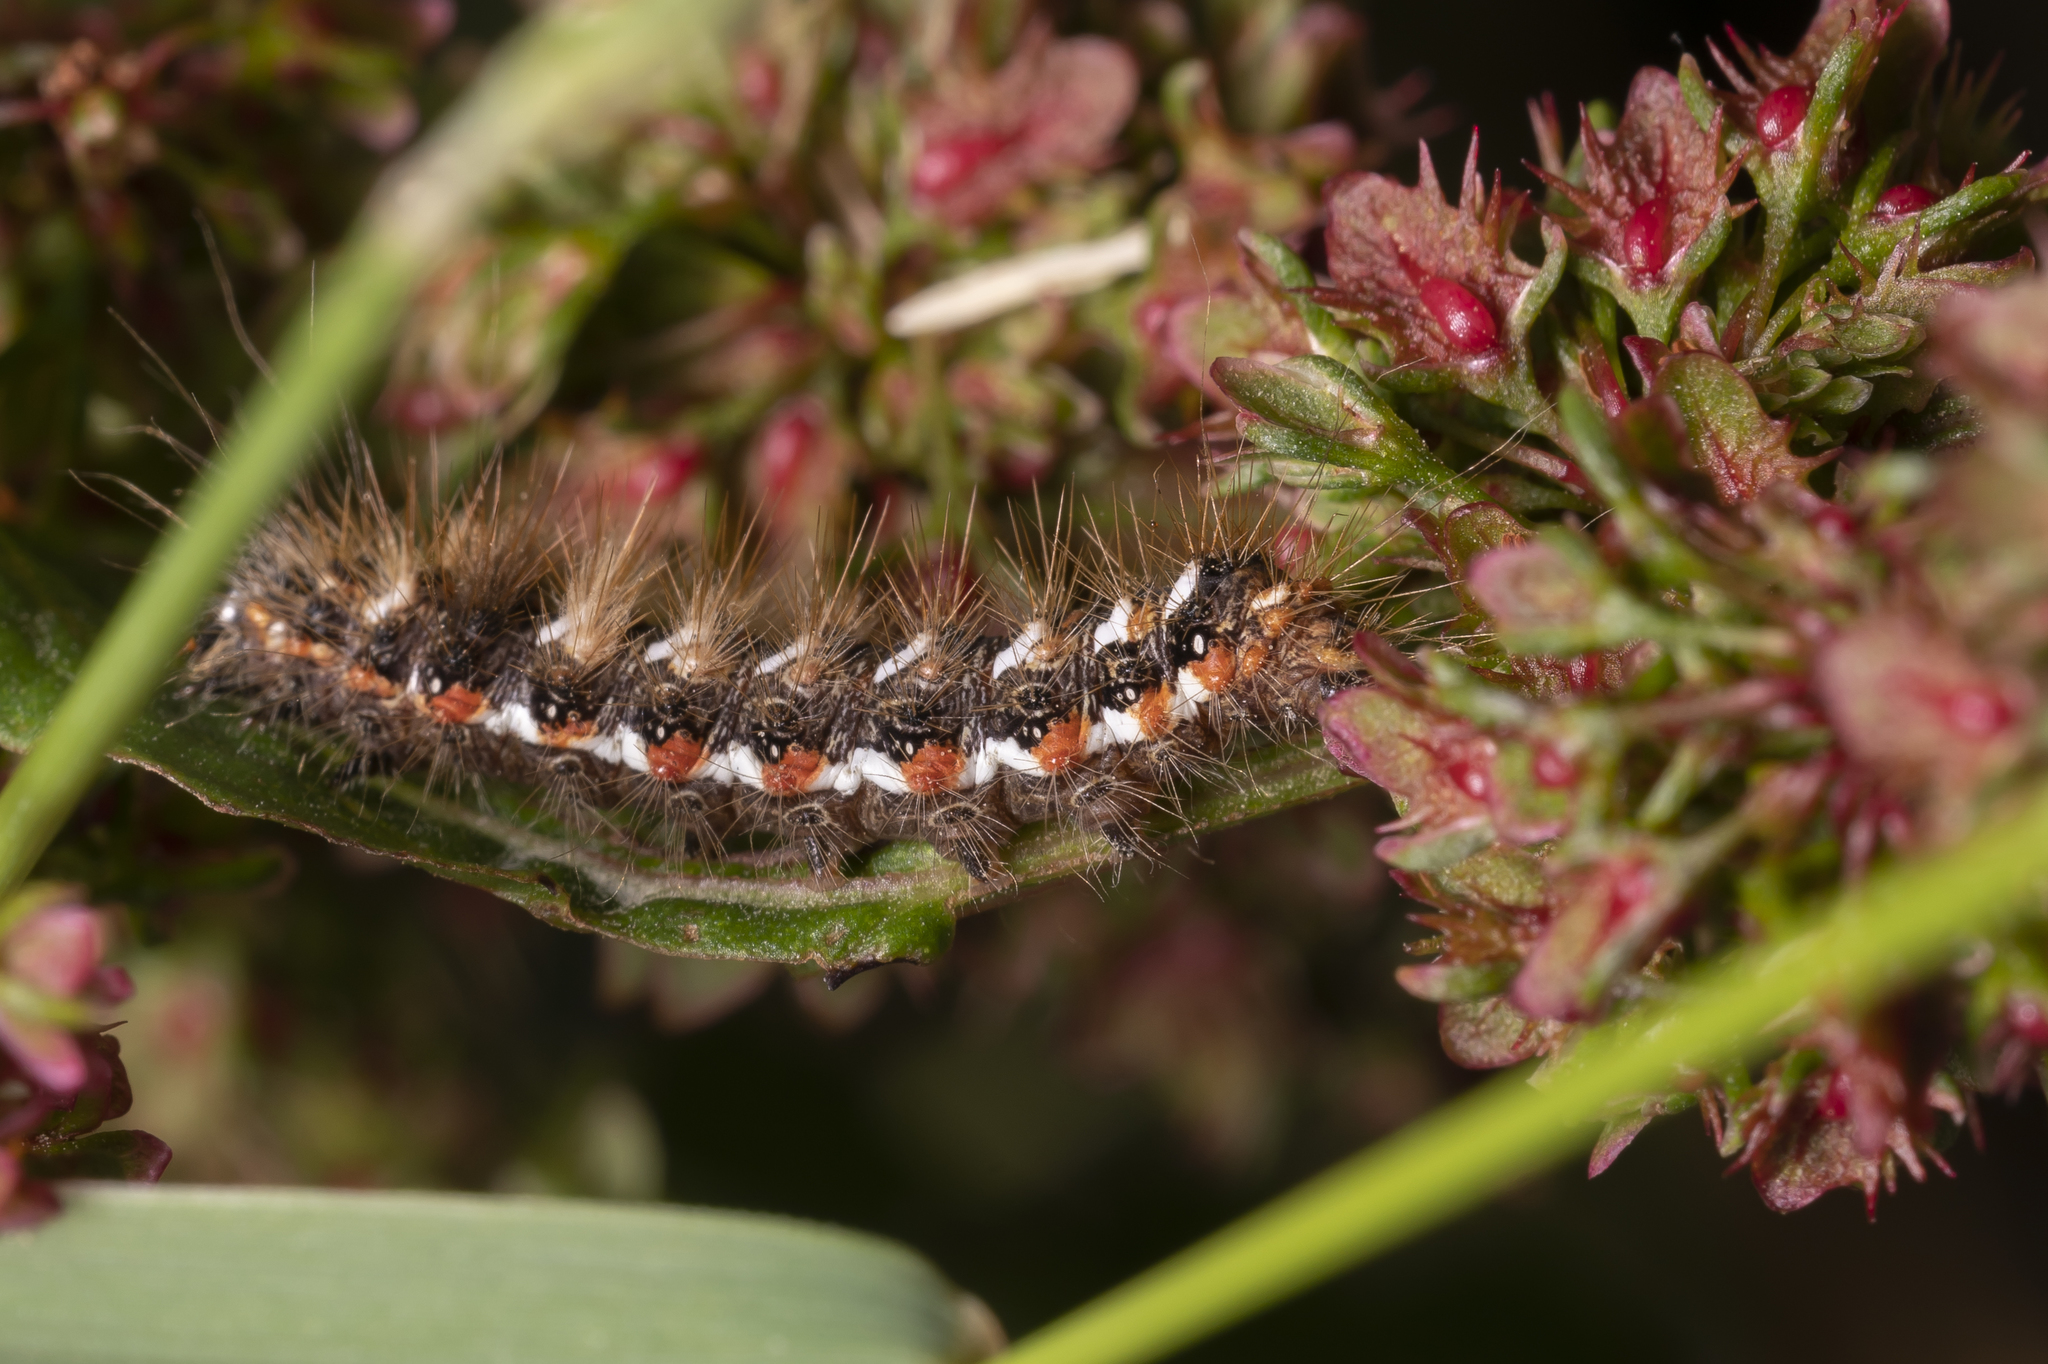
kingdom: Animalia
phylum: Arthropoda
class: Insecta
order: Lepidoptera
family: Noctuidae
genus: Acronicta
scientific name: Acronicta rumicis
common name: Knot grass
